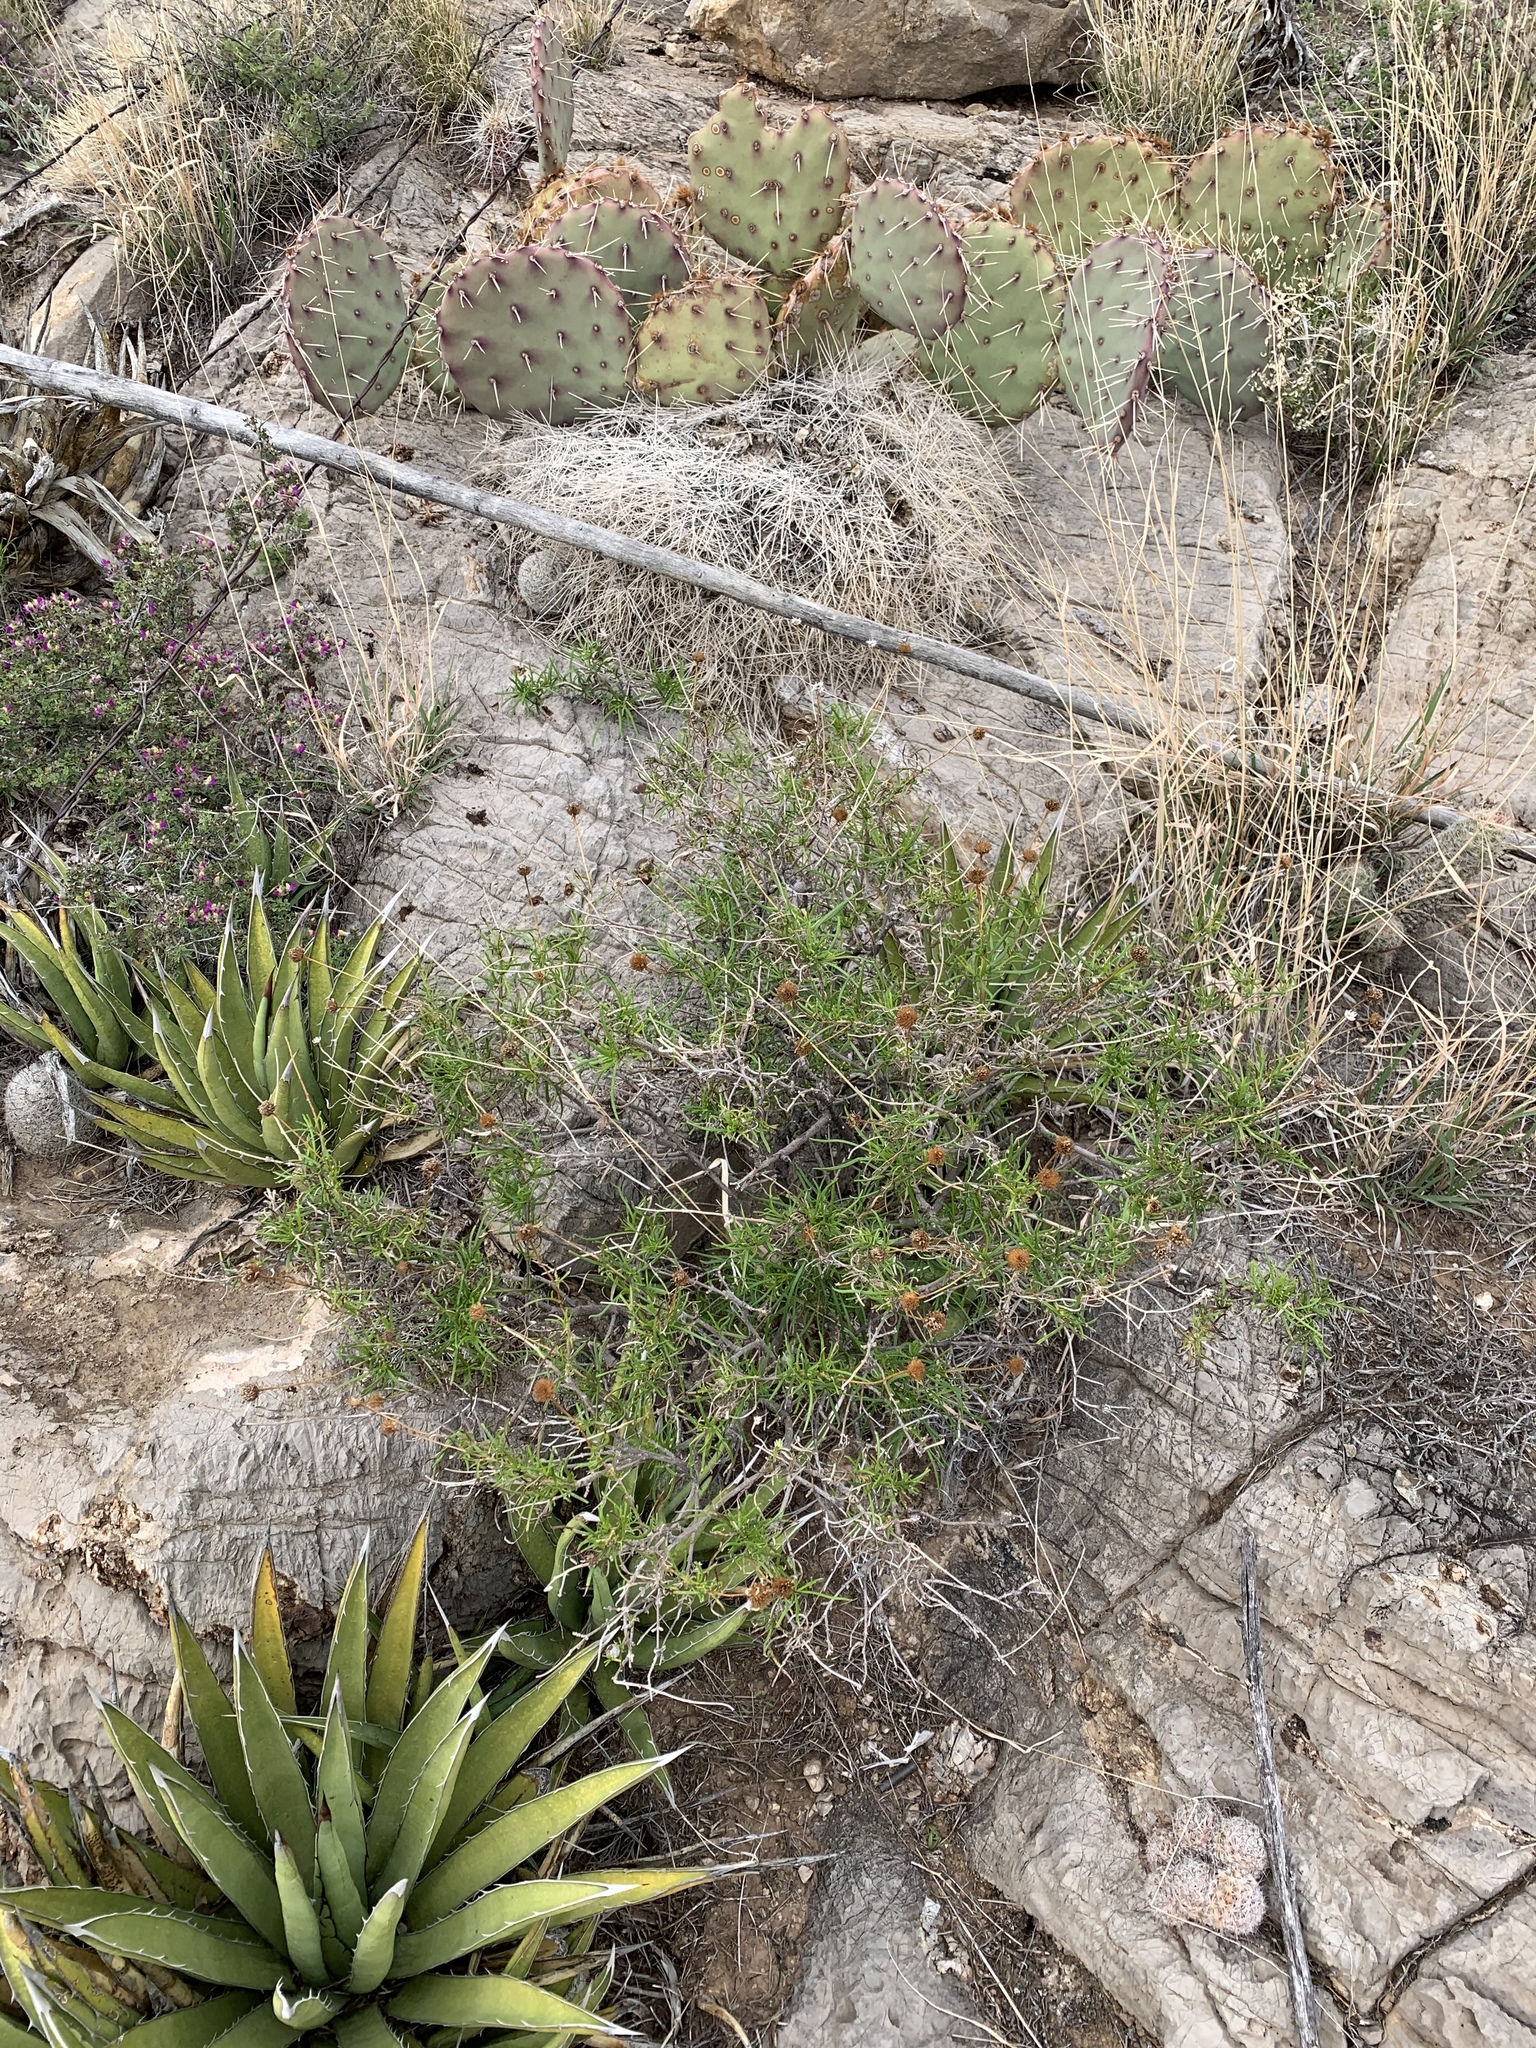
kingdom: Plantae
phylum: Tracheophyta
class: Magnoliopsida
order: Asterales
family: Asteraceae
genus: Sidneya
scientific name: Sidneya tenuifolia
